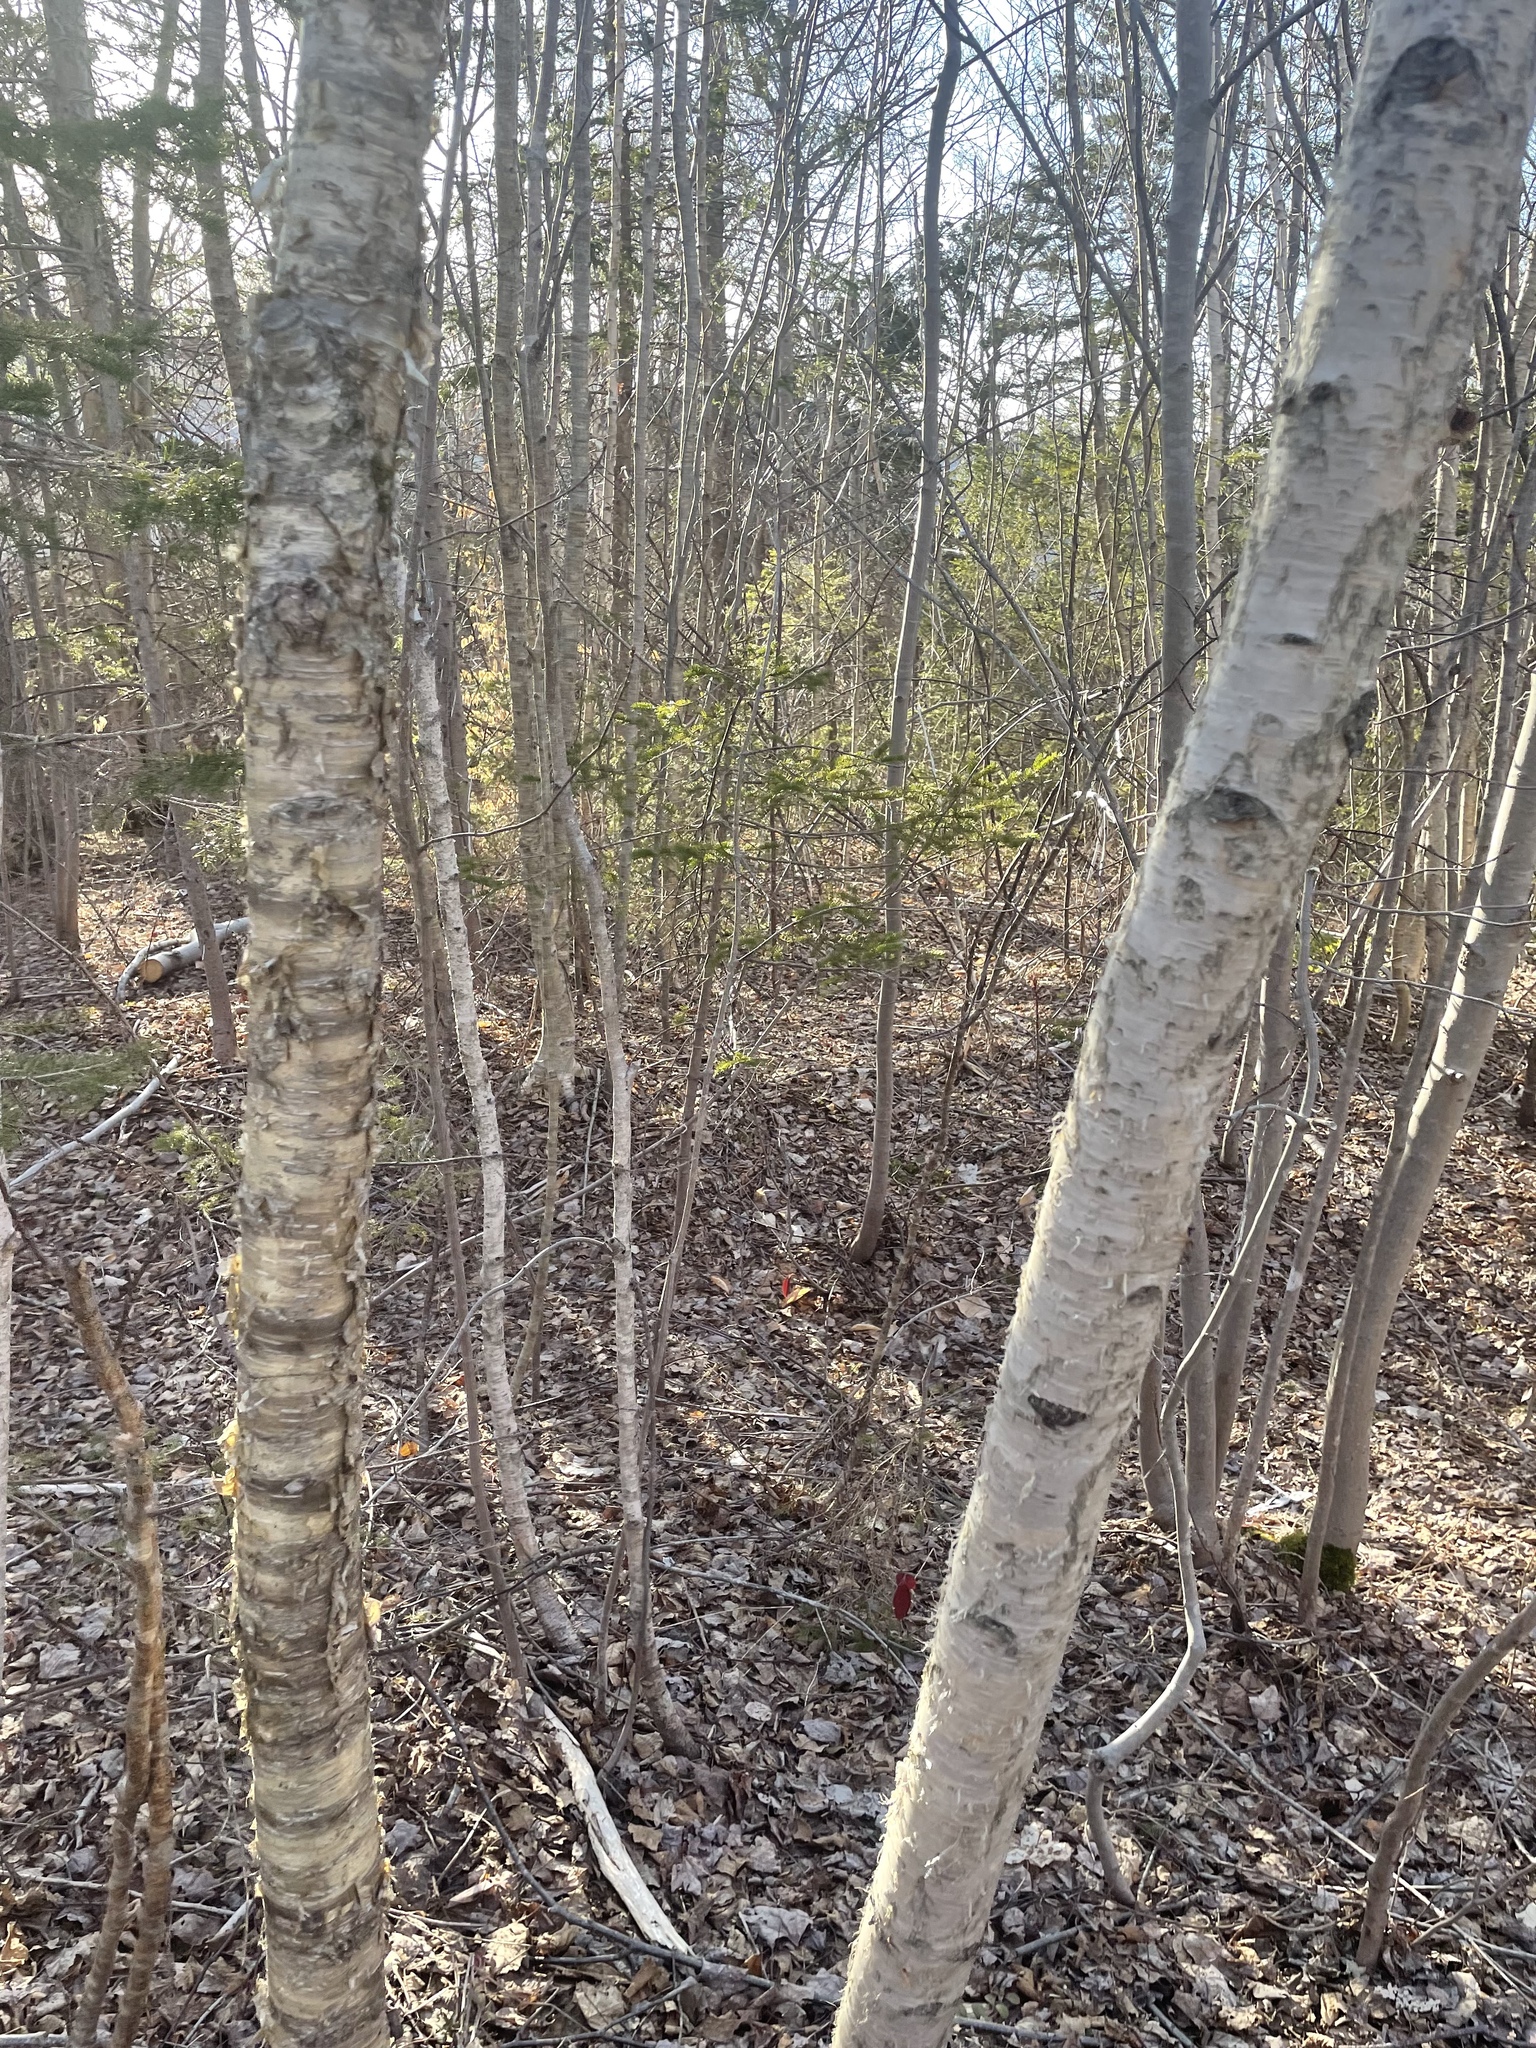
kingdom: Plantae
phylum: Tracheophyta
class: Magnoliopsida
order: Fagales
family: Betulaceae
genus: Betula
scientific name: Betula papyrifera
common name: Paper birch
